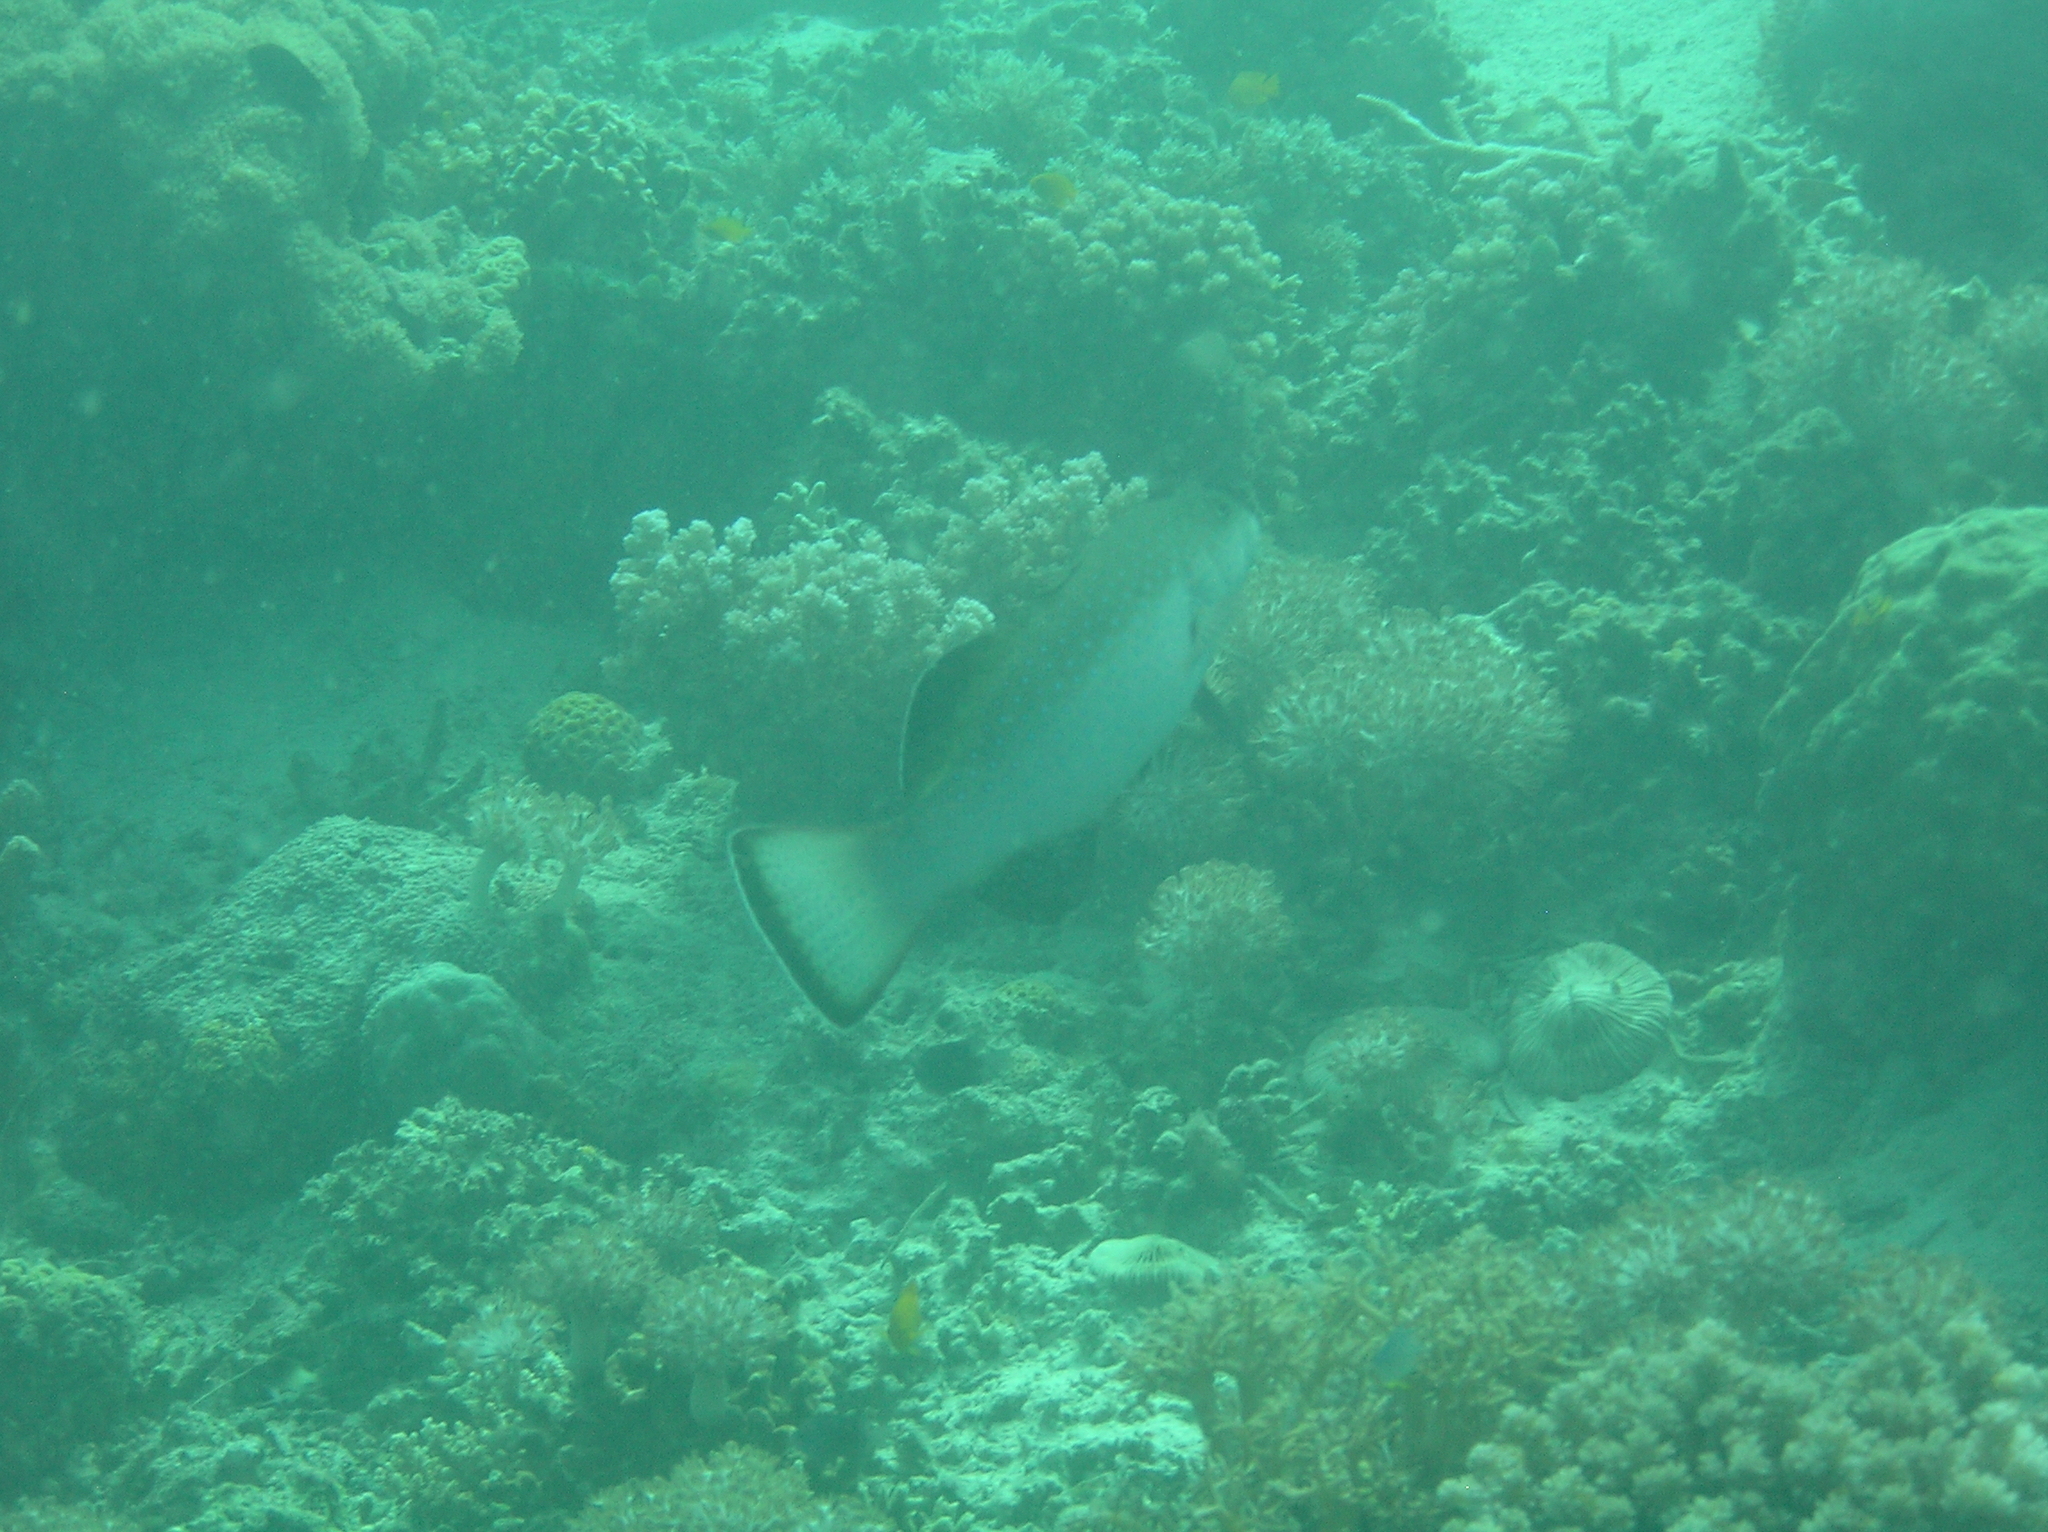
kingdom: Animalia
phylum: Chordata
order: Perciformes
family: Serranidae
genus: Plectropomus
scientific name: Plectropomus areolatus
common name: Squaretail coralgrouper
